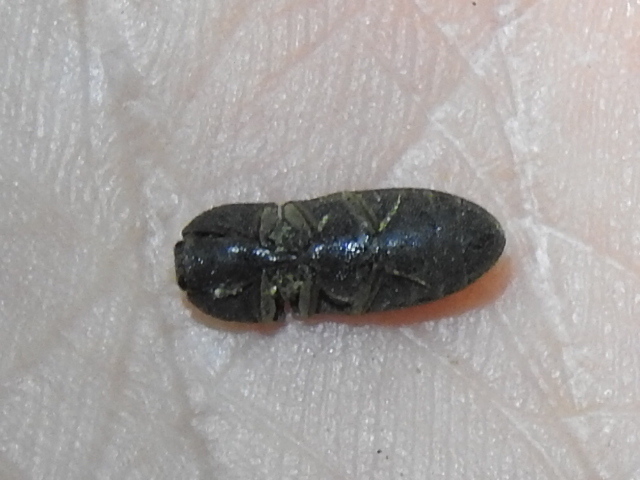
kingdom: Animalia
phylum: Arthropoda
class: Insecta
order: Coleoptera
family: Elateridae
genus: Agrypnus
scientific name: Agrypnus rectangularis
